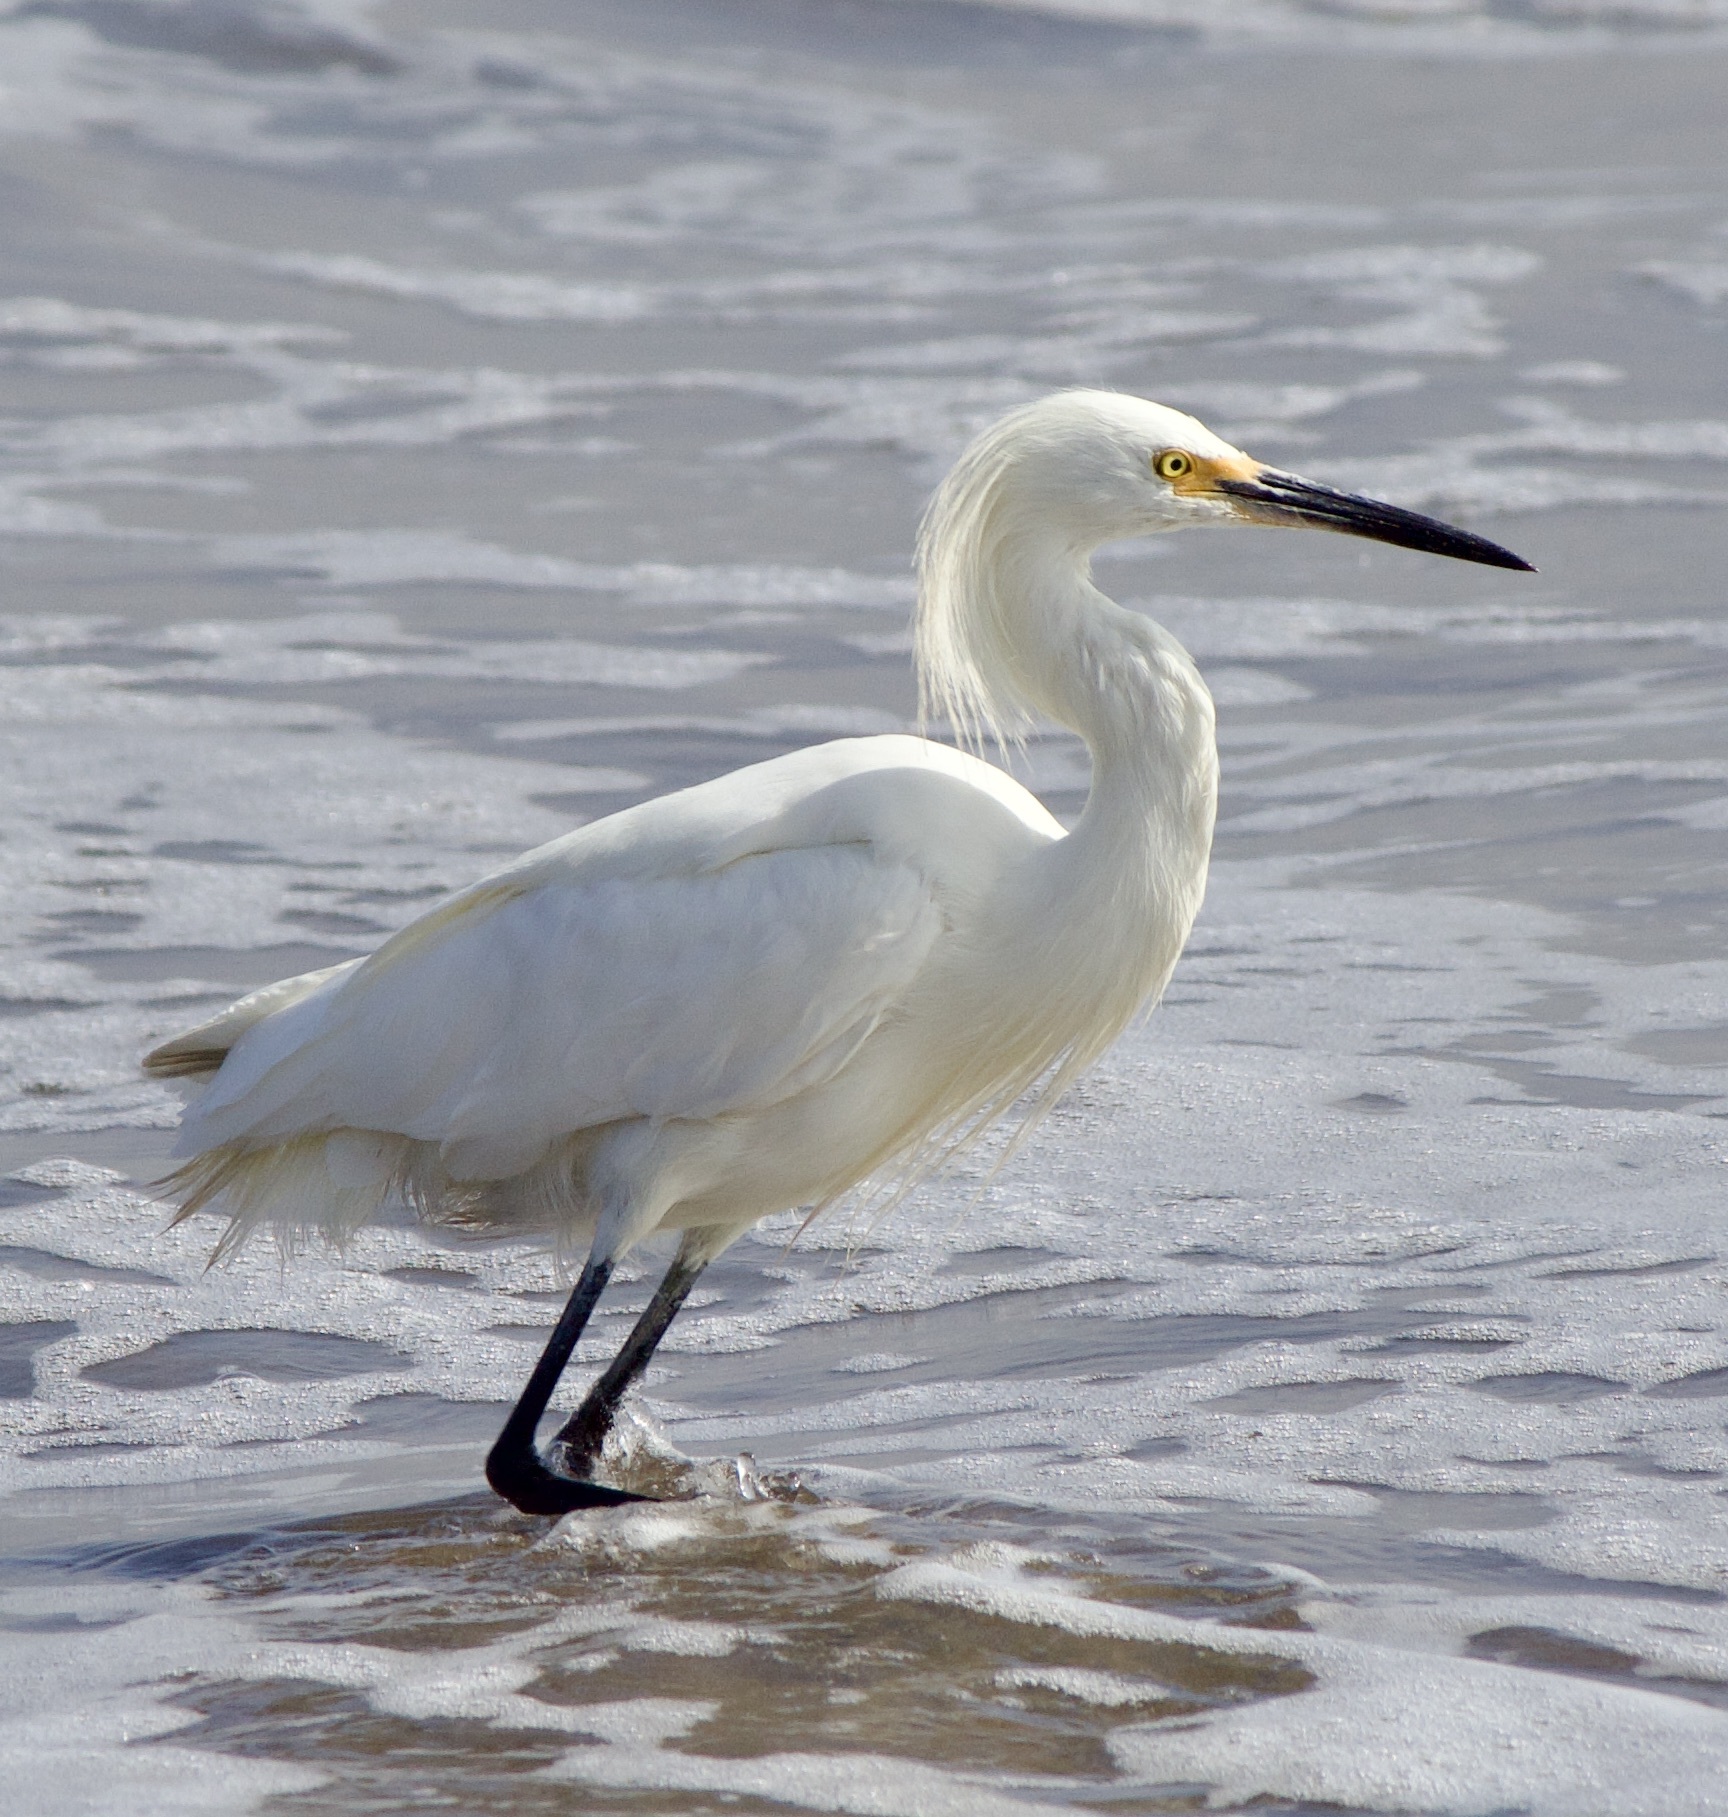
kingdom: Animalia
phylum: Chordata
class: Aves
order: Pelecaniformes
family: Ardeidae
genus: Egretta
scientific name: Egretta thula
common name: Snowy egret
